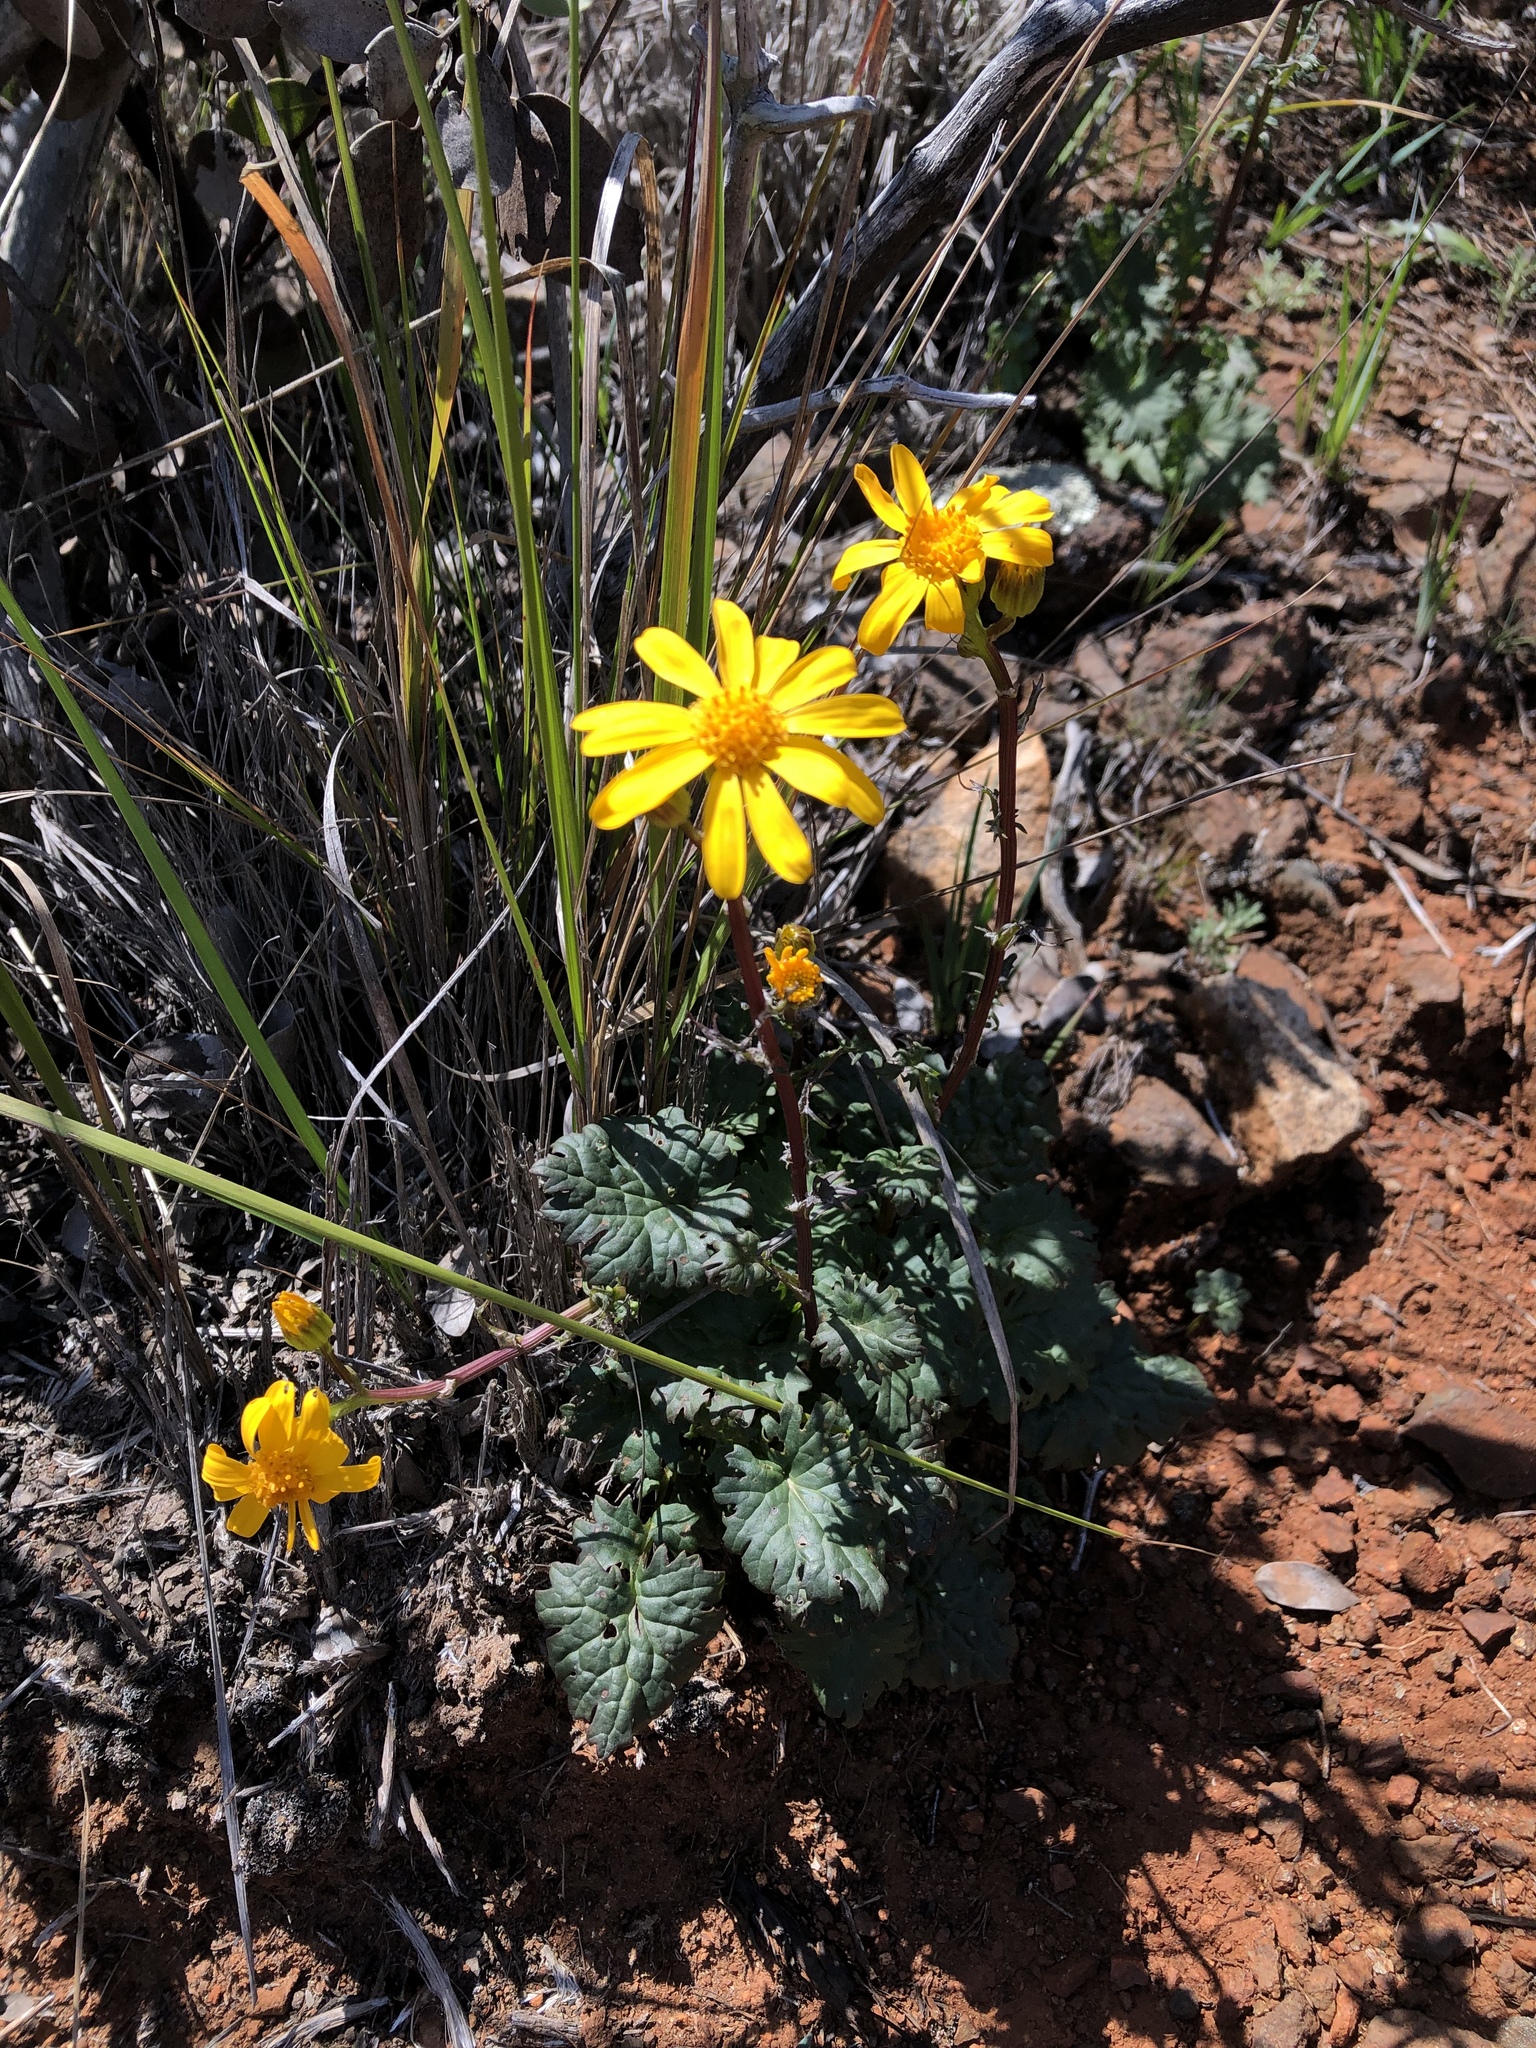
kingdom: Plantae
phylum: Tracheophyta
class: Magnoliopsida
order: Asterales
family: Asteraceae
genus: Packera
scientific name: Packera ganderi
